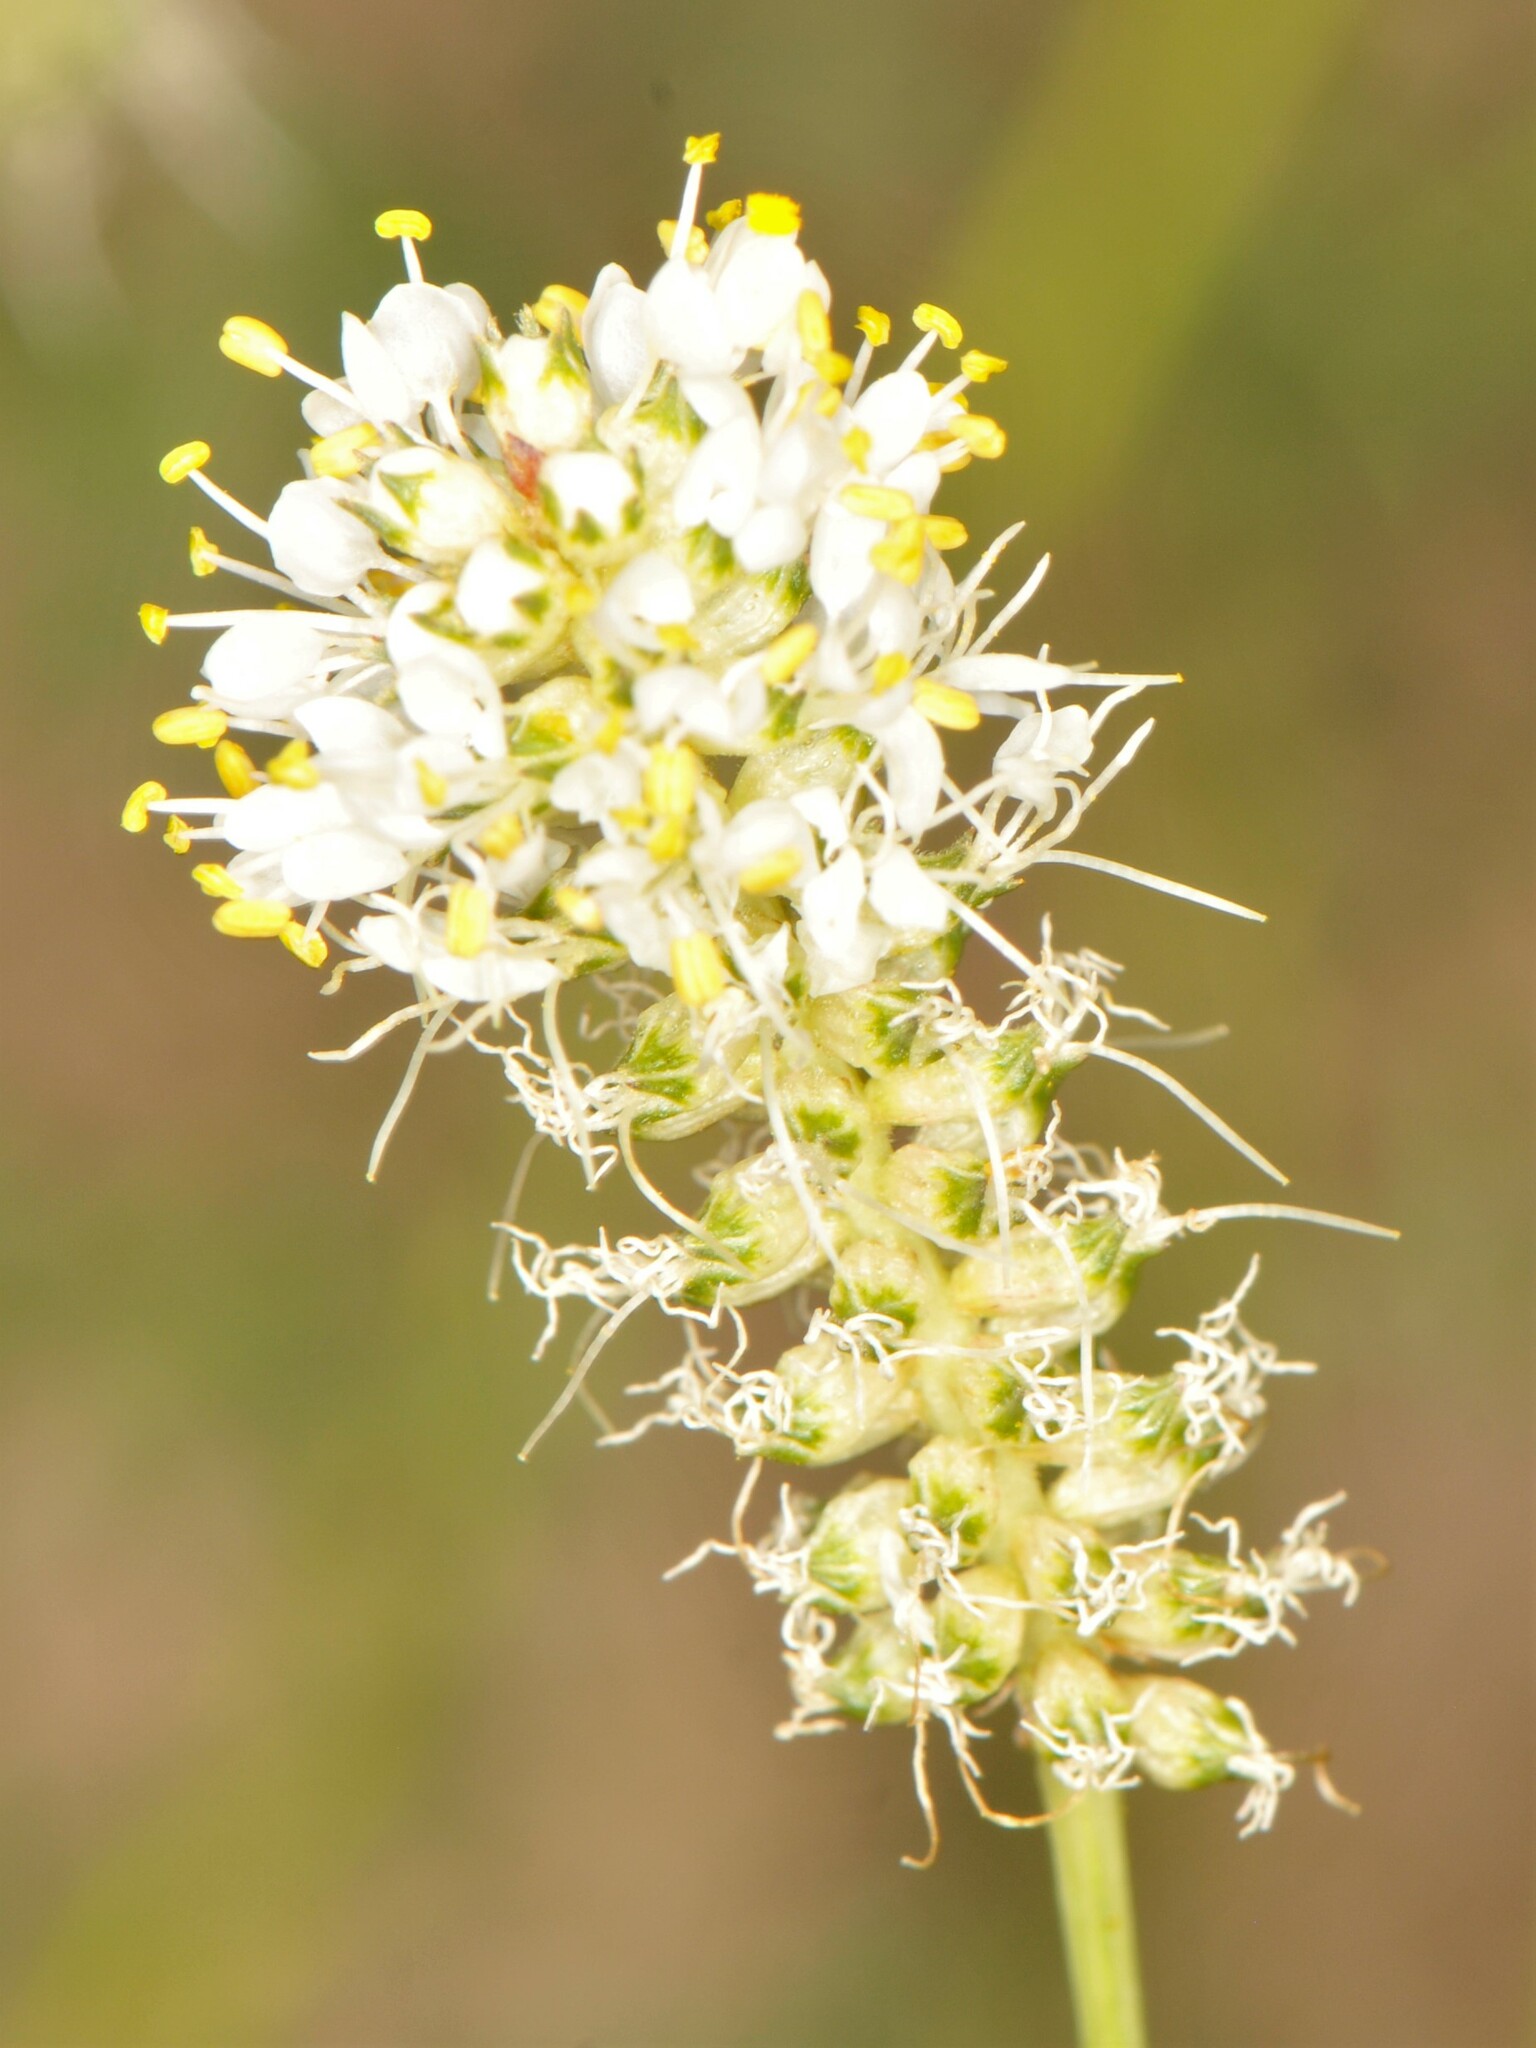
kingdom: Plantae
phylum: Tracheophyta
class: Magnoliopsida
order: Fabales
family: Fabaceae
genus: Dalea
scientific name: Dalea candida
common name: White prairie-clover
